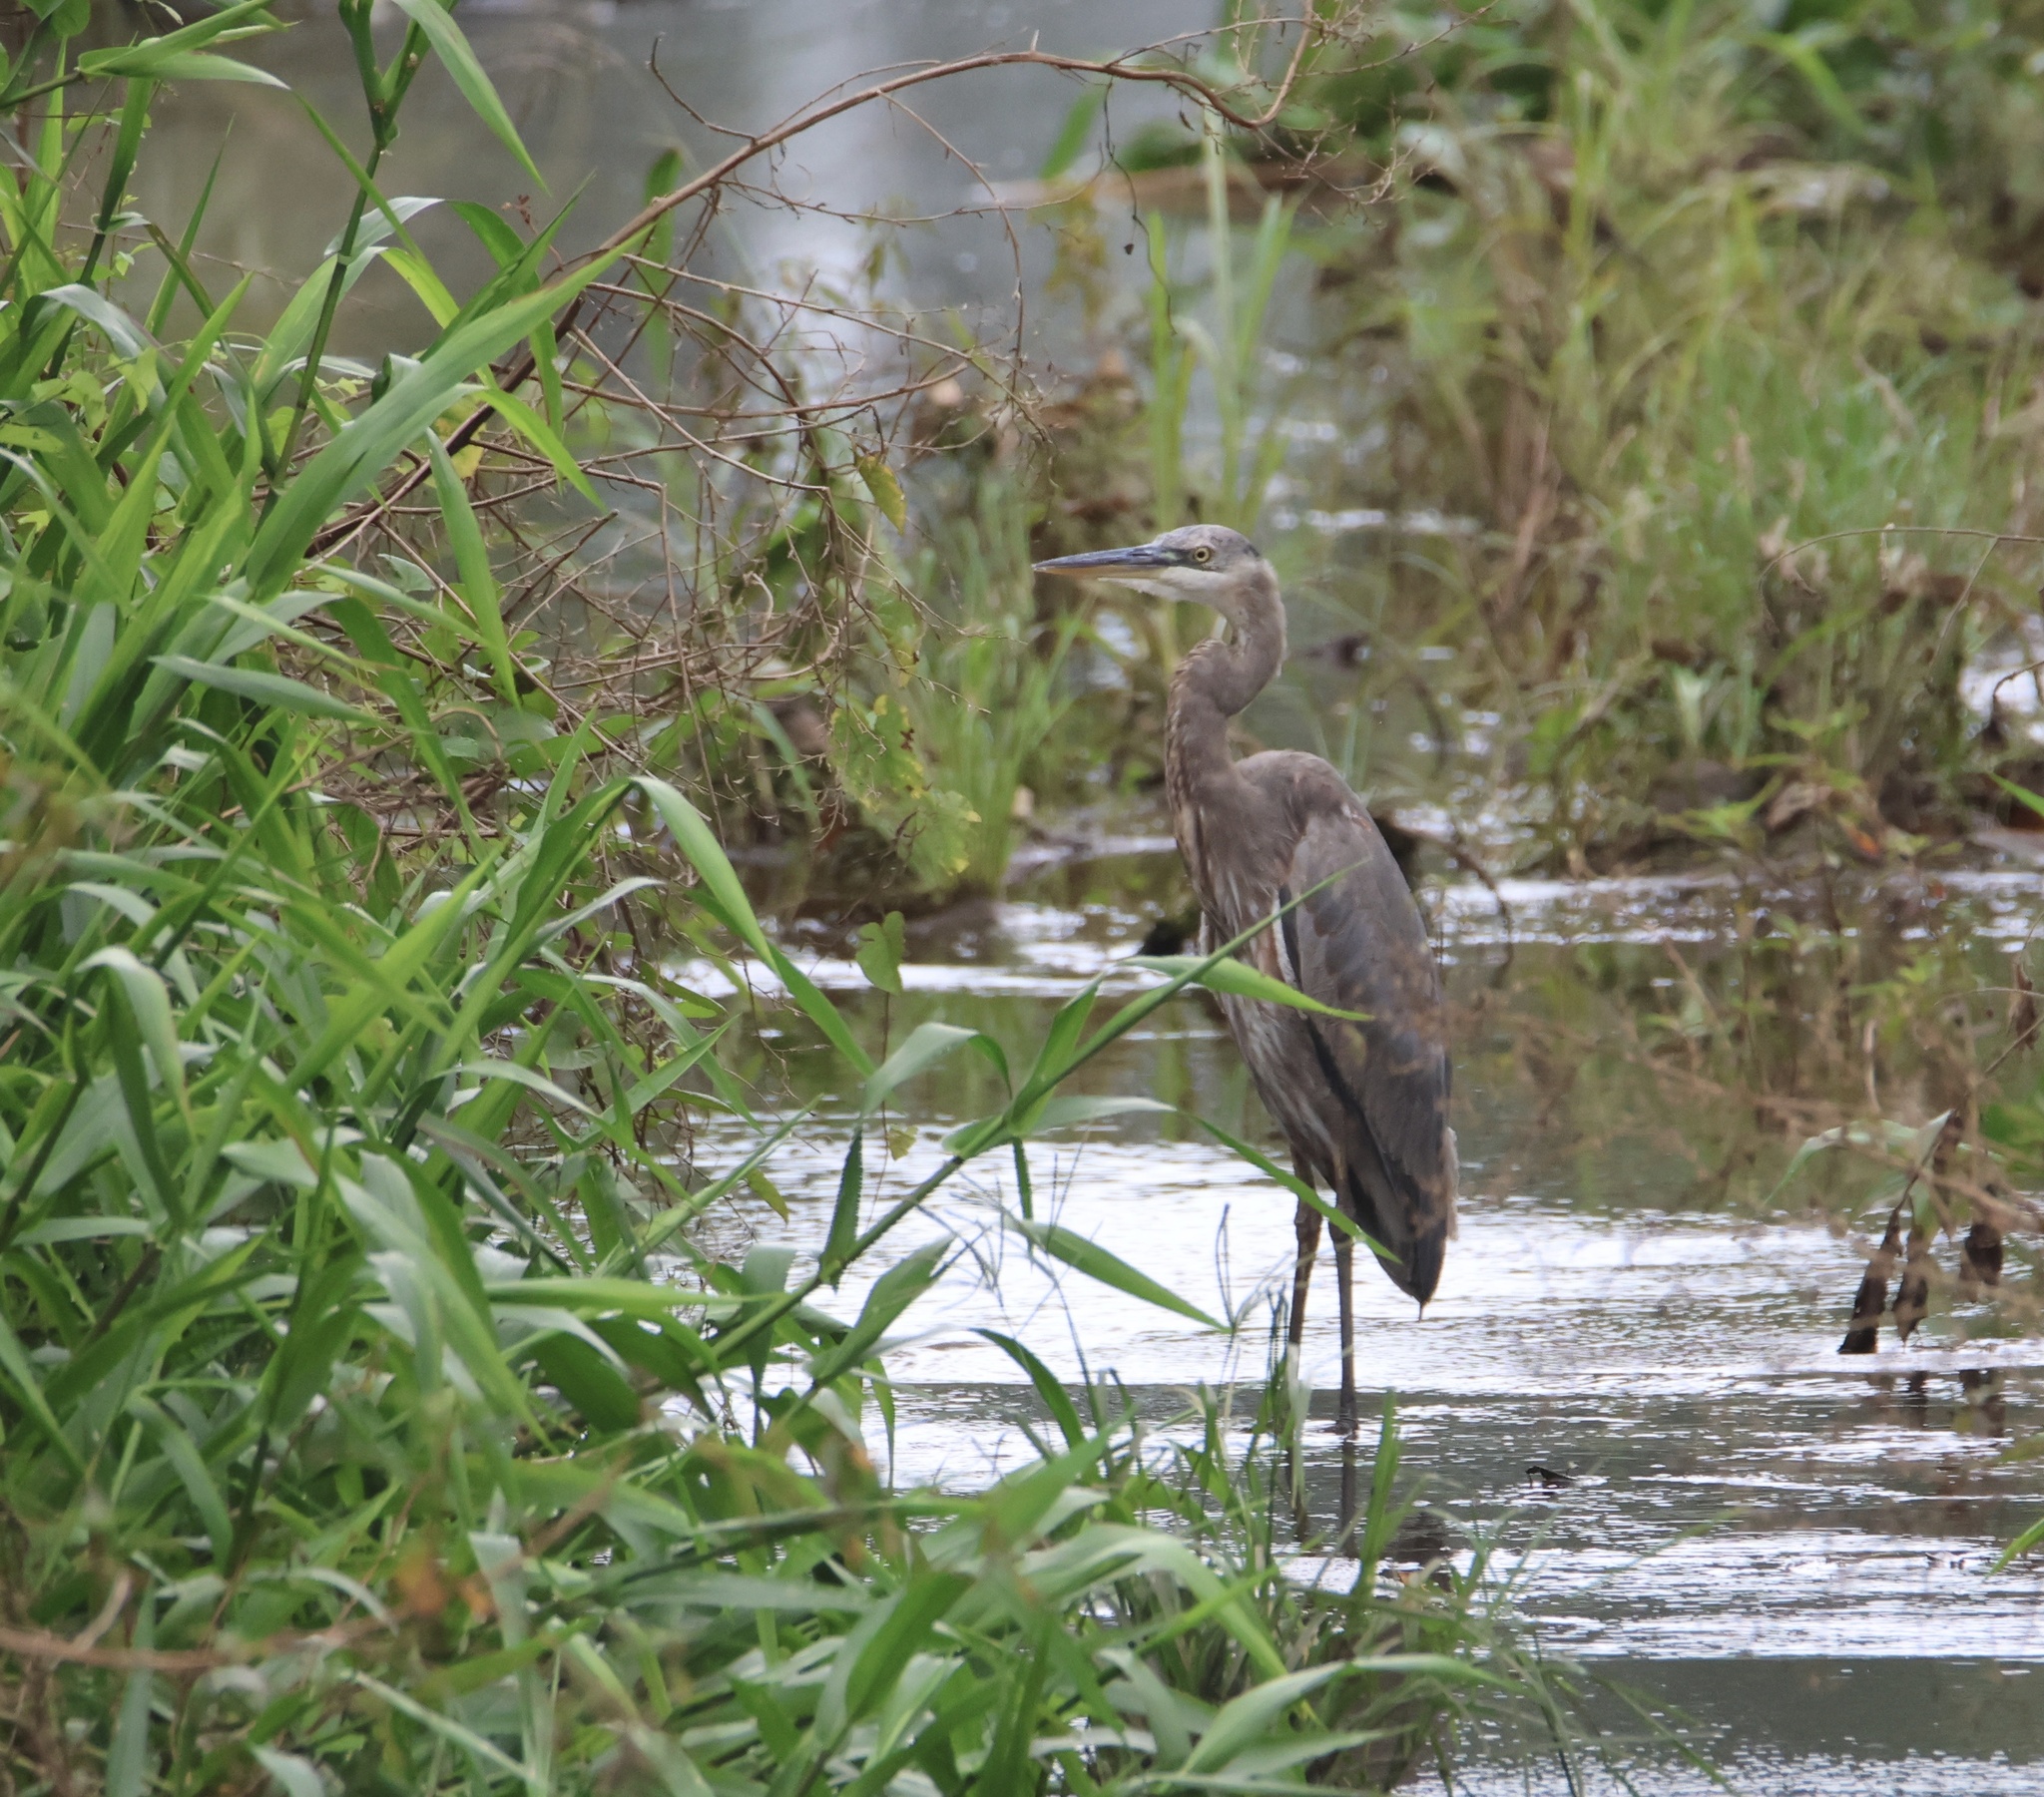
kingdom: Animalia
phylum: Chordata
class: Aves
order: Pelecaniformes
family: Ardeidae
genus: Ardea
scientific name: Ardea herodias
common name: Great blue heron
